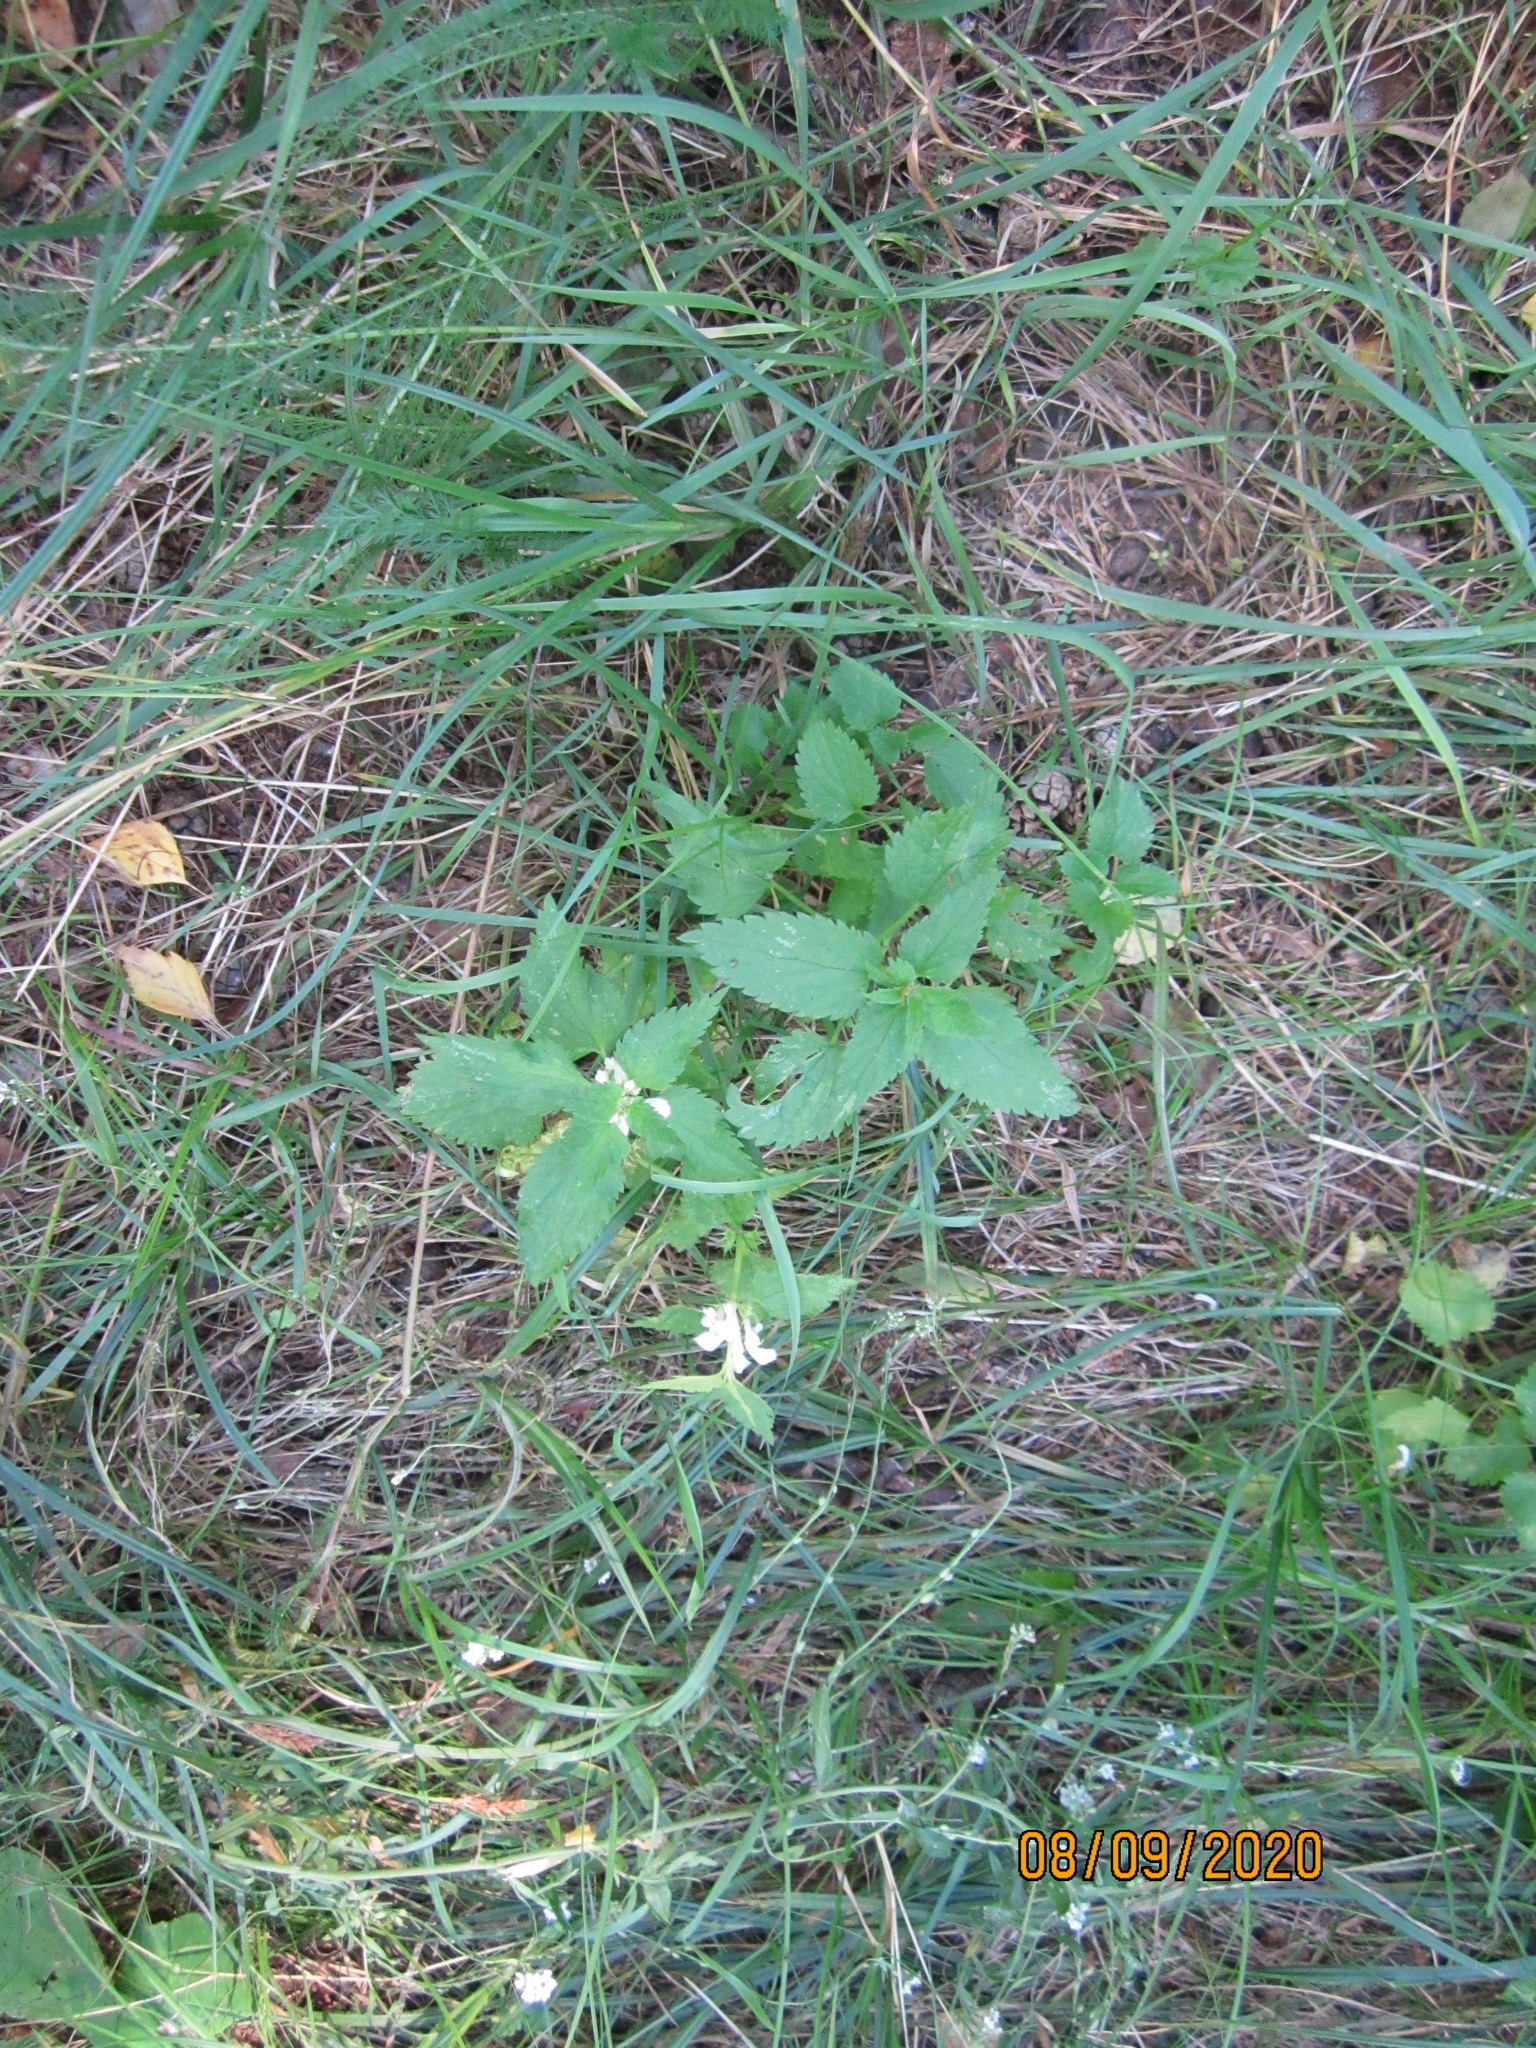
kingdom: Plantae
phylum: Tracheophyta
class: Magnoliopsida
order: Lamiales
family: Lamiaceae
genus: Lamium
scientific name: Lamium album
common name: White dead-nettle
